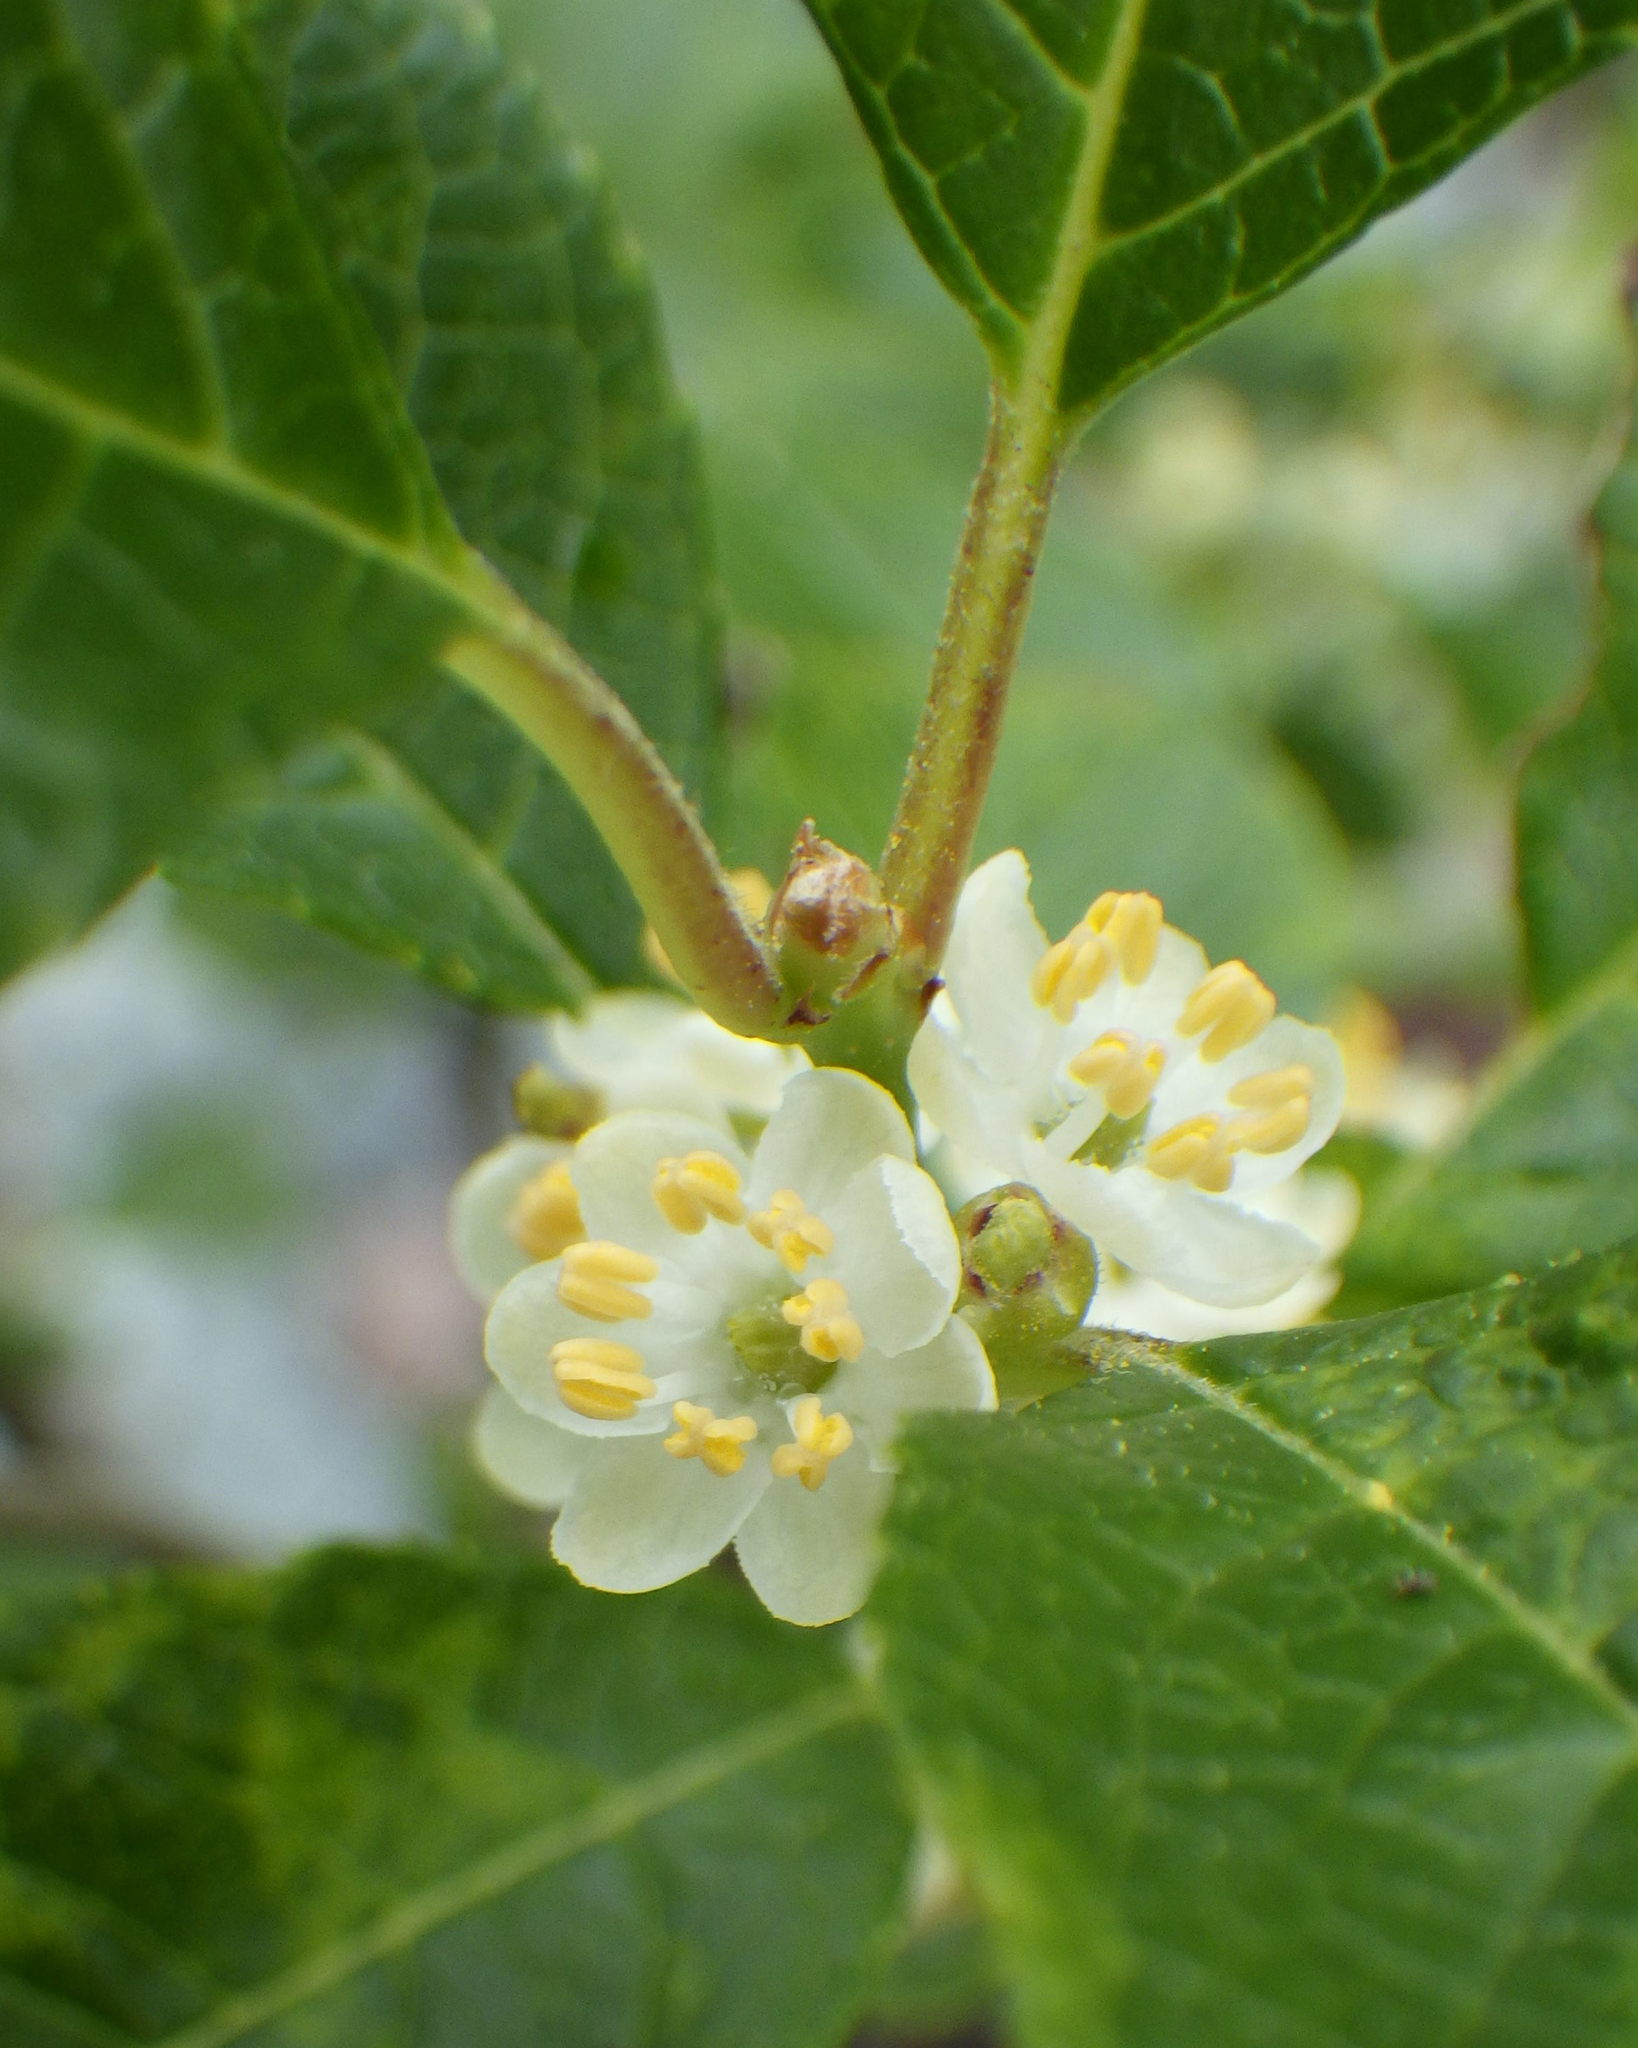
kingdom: Plantae
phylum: Tracheophyta
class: Magnoliopsida
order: Aquifoliales
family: Aquifoliaceae
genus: Ilex
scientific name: Ilex verticillata
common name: Virginia winterberry
